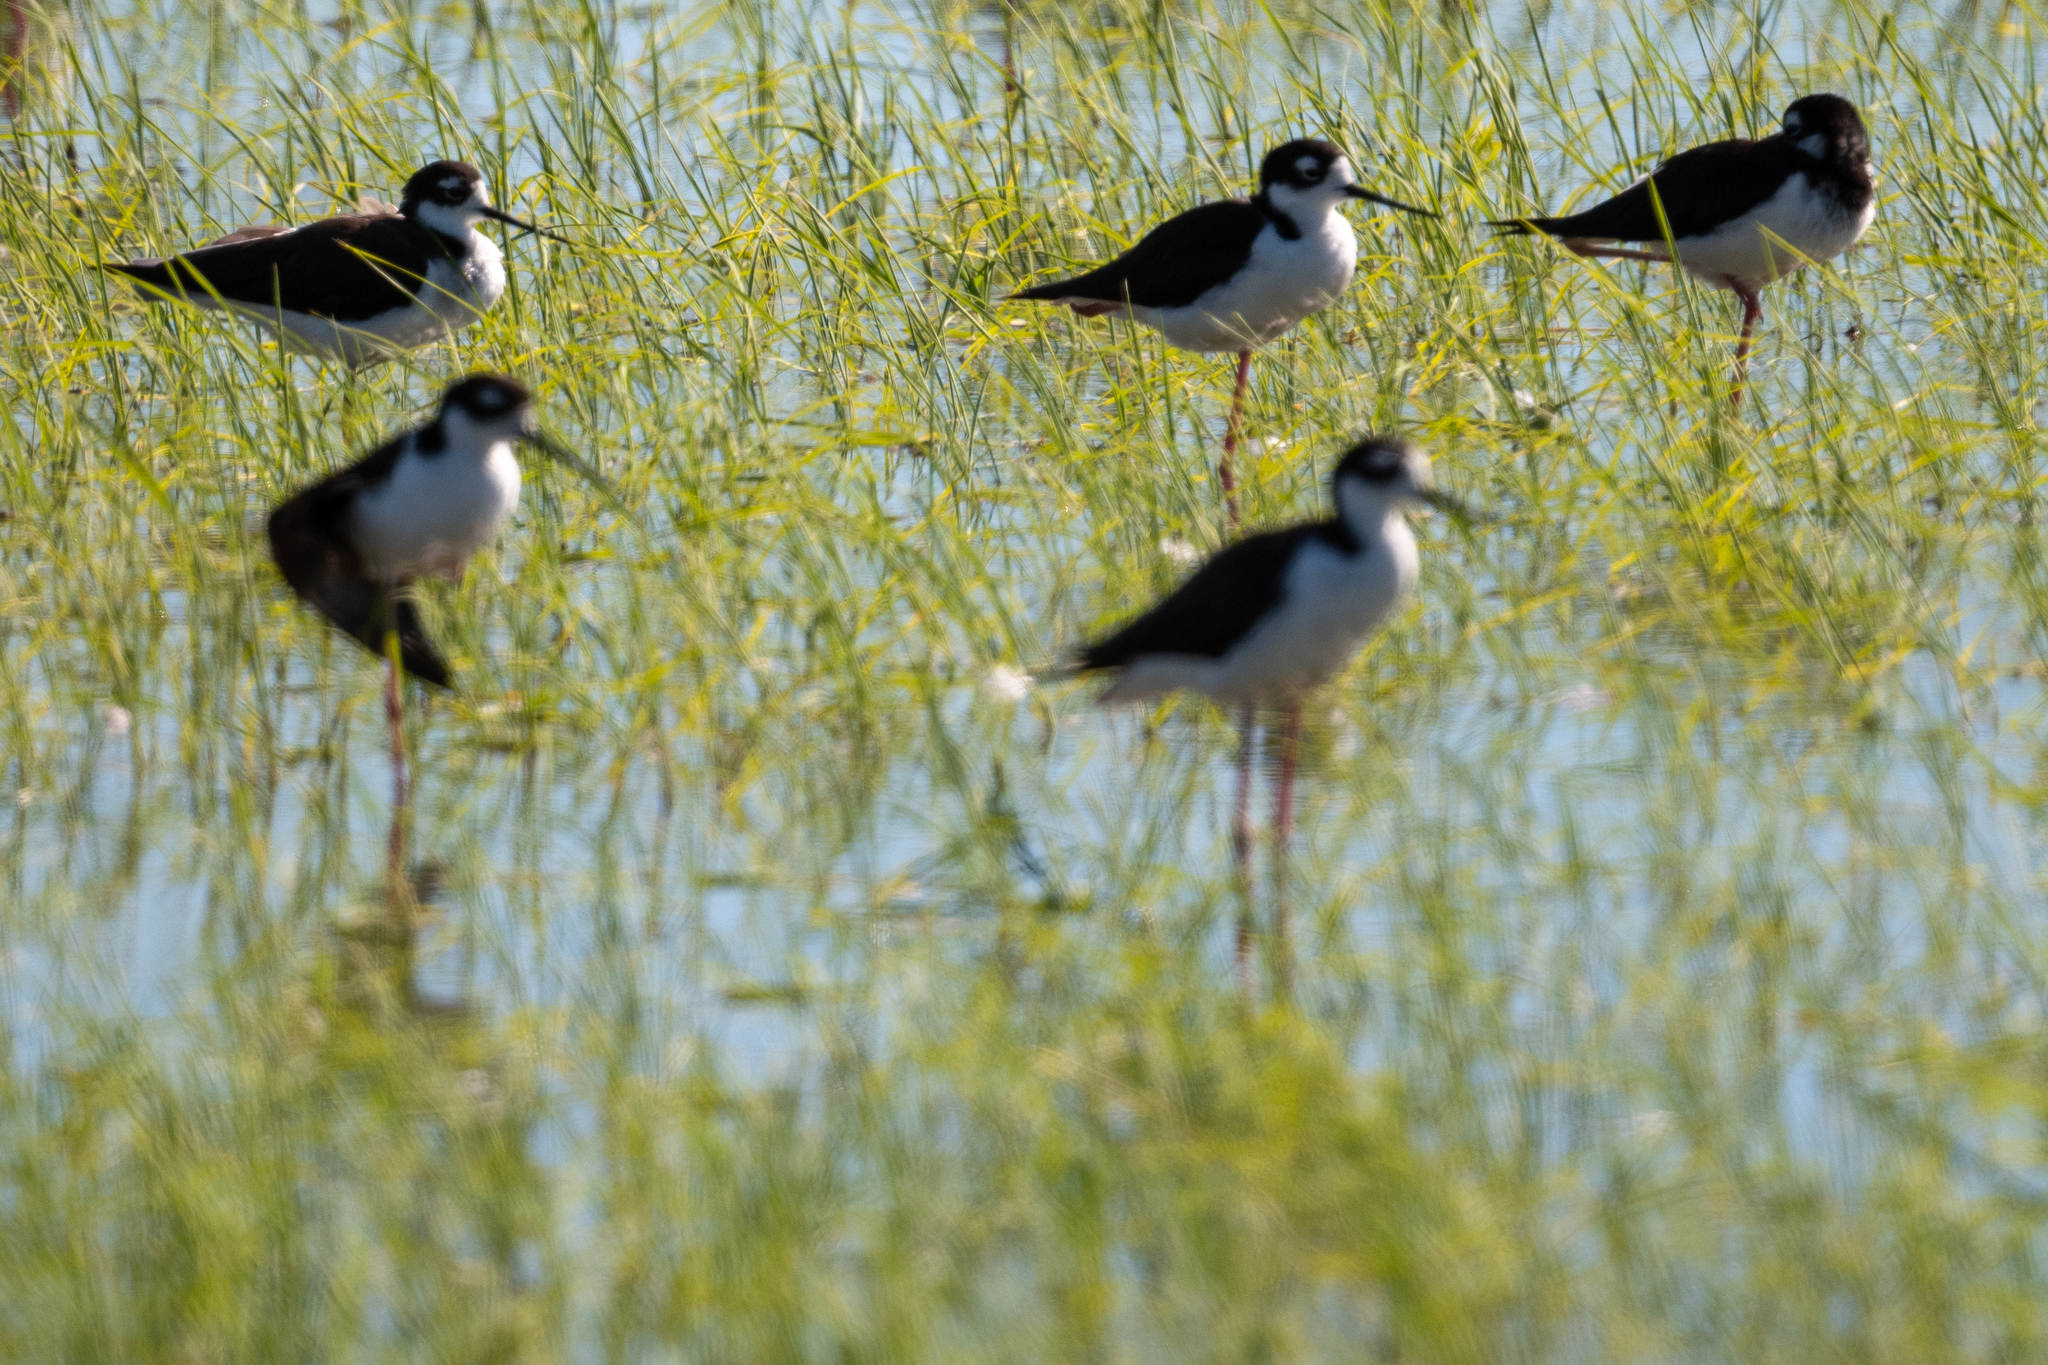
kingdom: Animalia
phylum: Chordata
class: Aves
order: Charadriiformes
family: Recurvirostridae
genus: Himantopus
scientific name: Himantopus mexicanus
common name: Black-necked stilt
